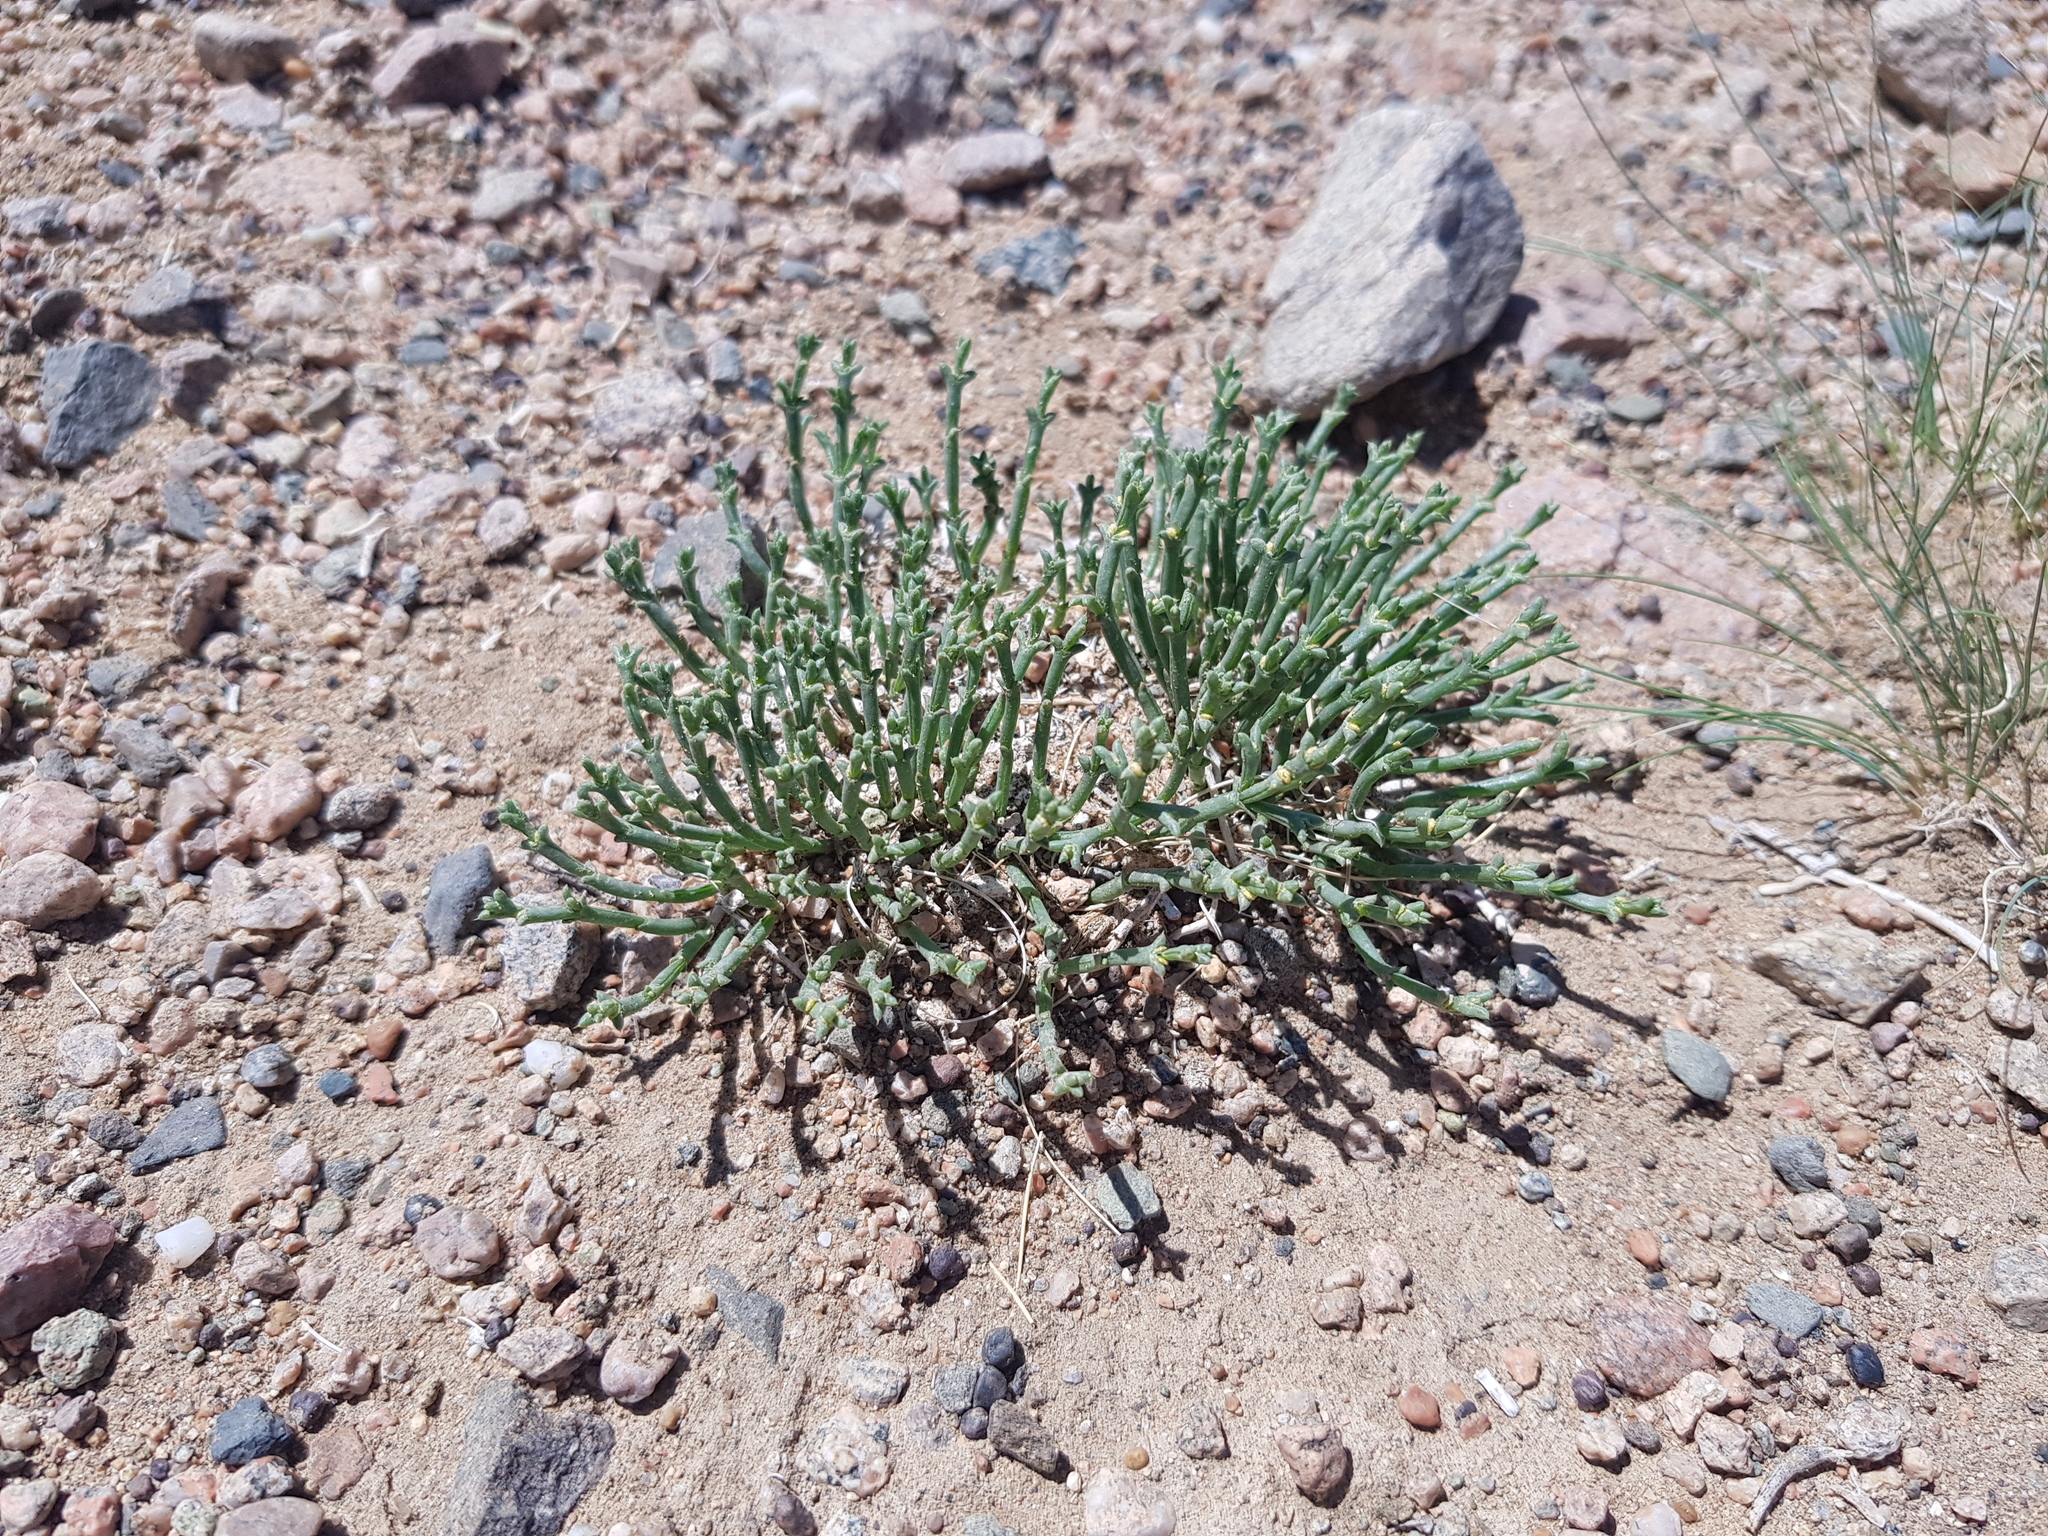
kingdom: Plantae
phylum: Tracheophyta
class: Magnoliopsida
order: Caryophyllales
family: Amaranthaceae
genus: Anabasis
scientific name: Anabasis brevifolia
